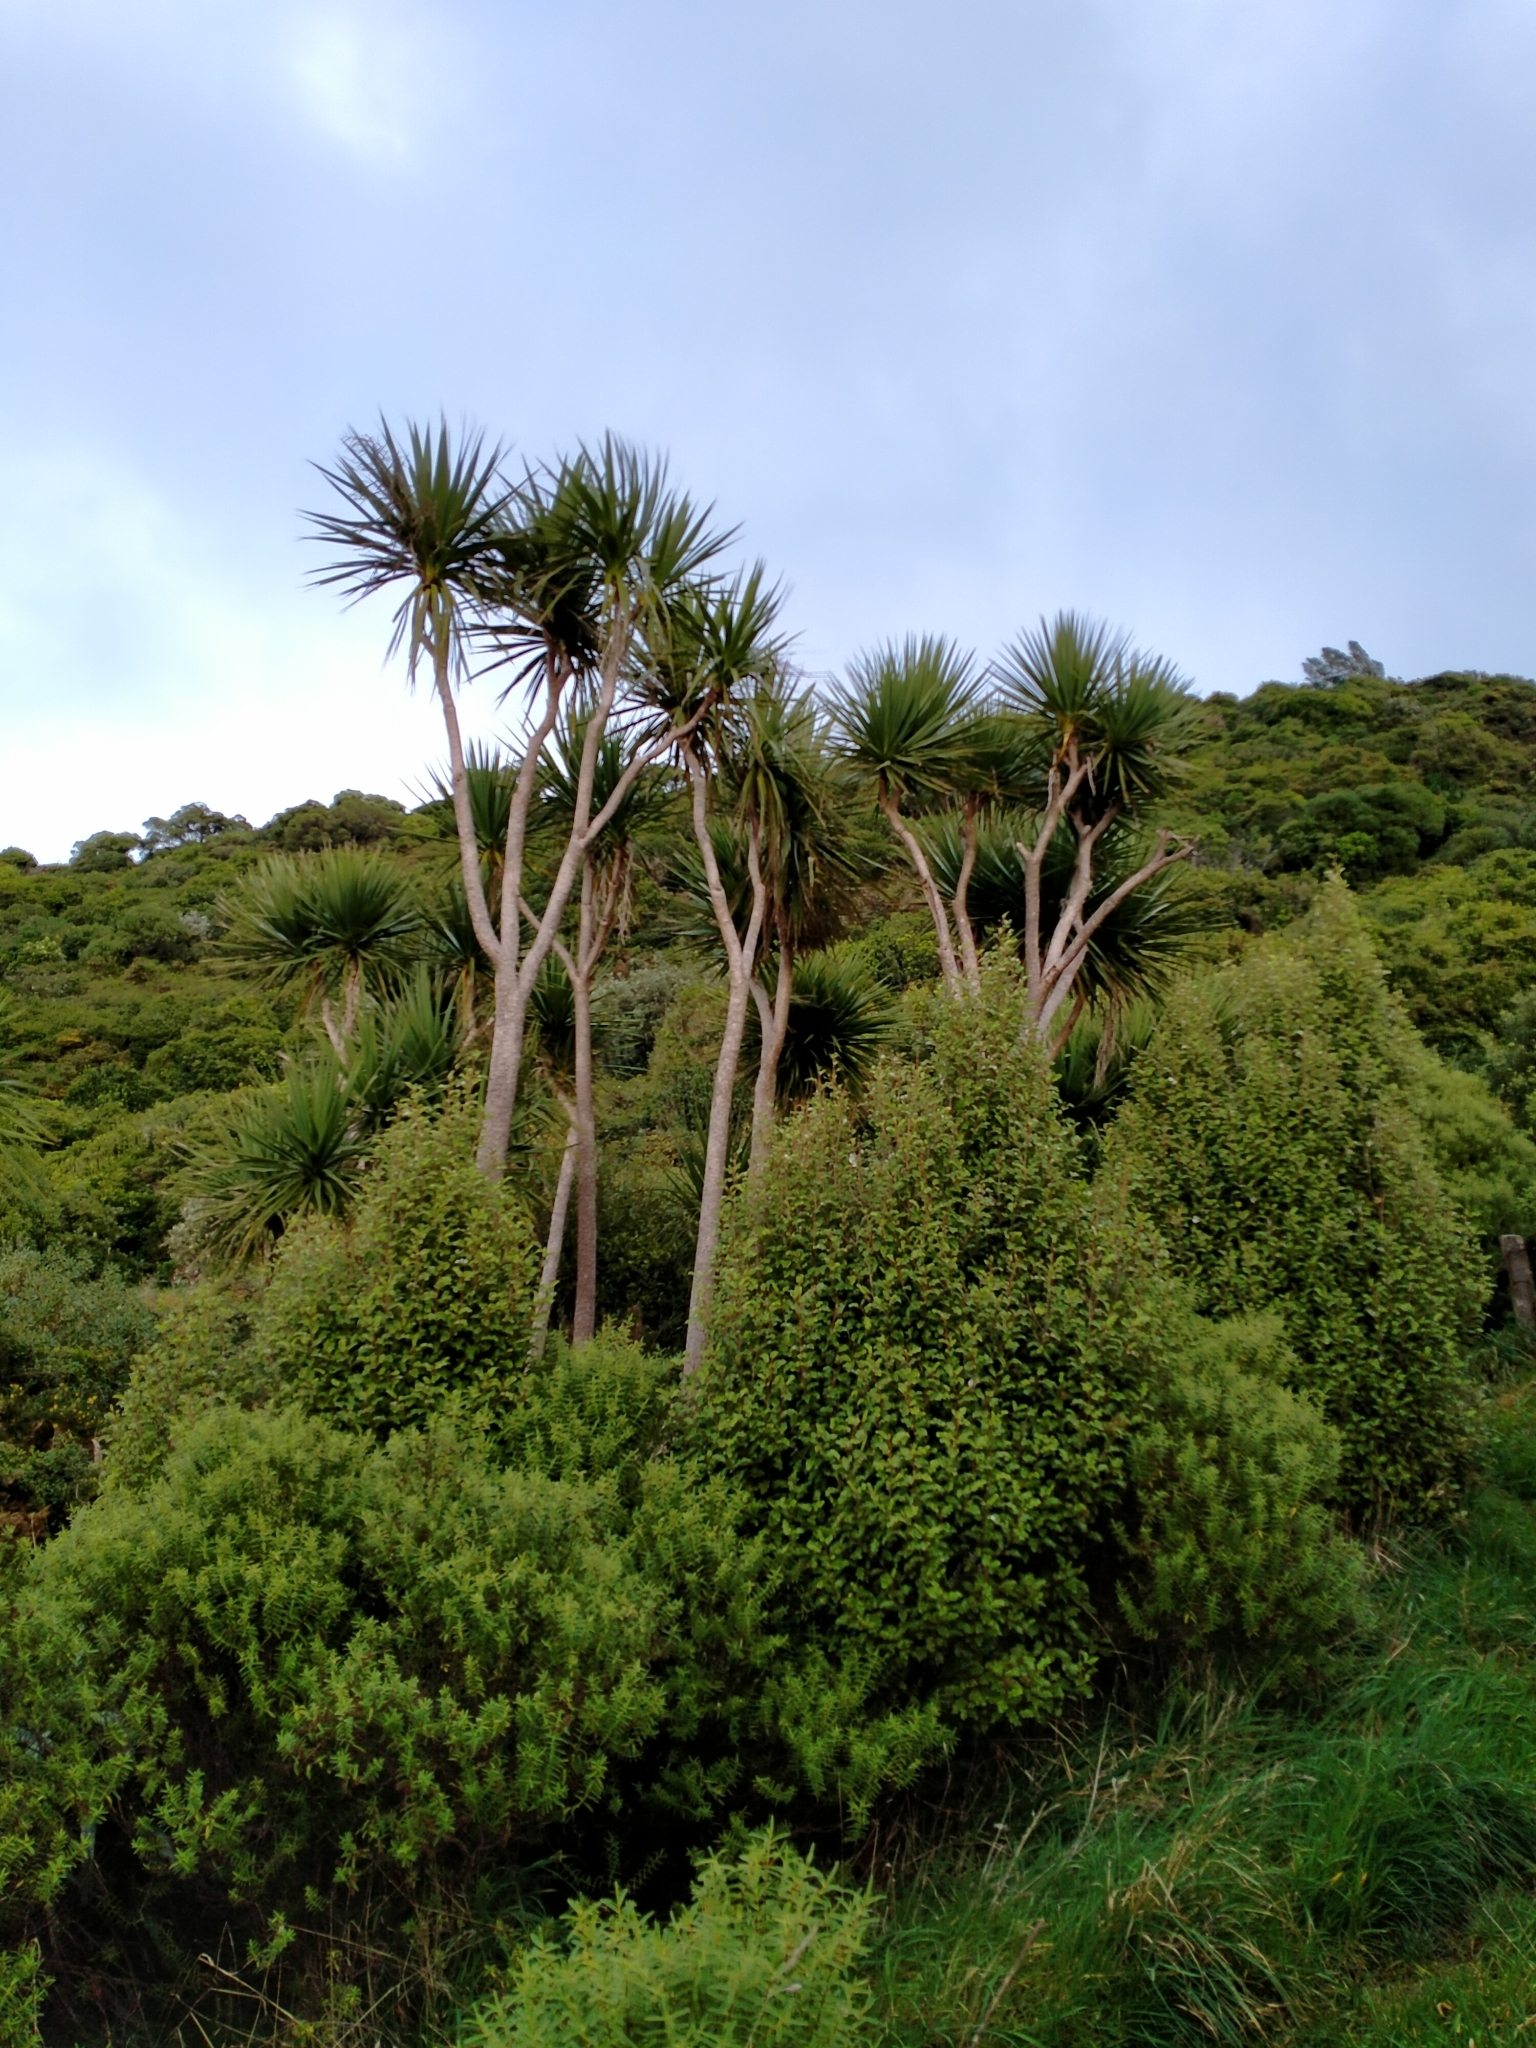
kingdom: Plantae
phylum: Tracheophyta
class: Liliopsida
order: Asparagales
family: Asparagaceae
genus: Cordyline
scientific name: Cordyline australis
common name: Cabbage-palm
